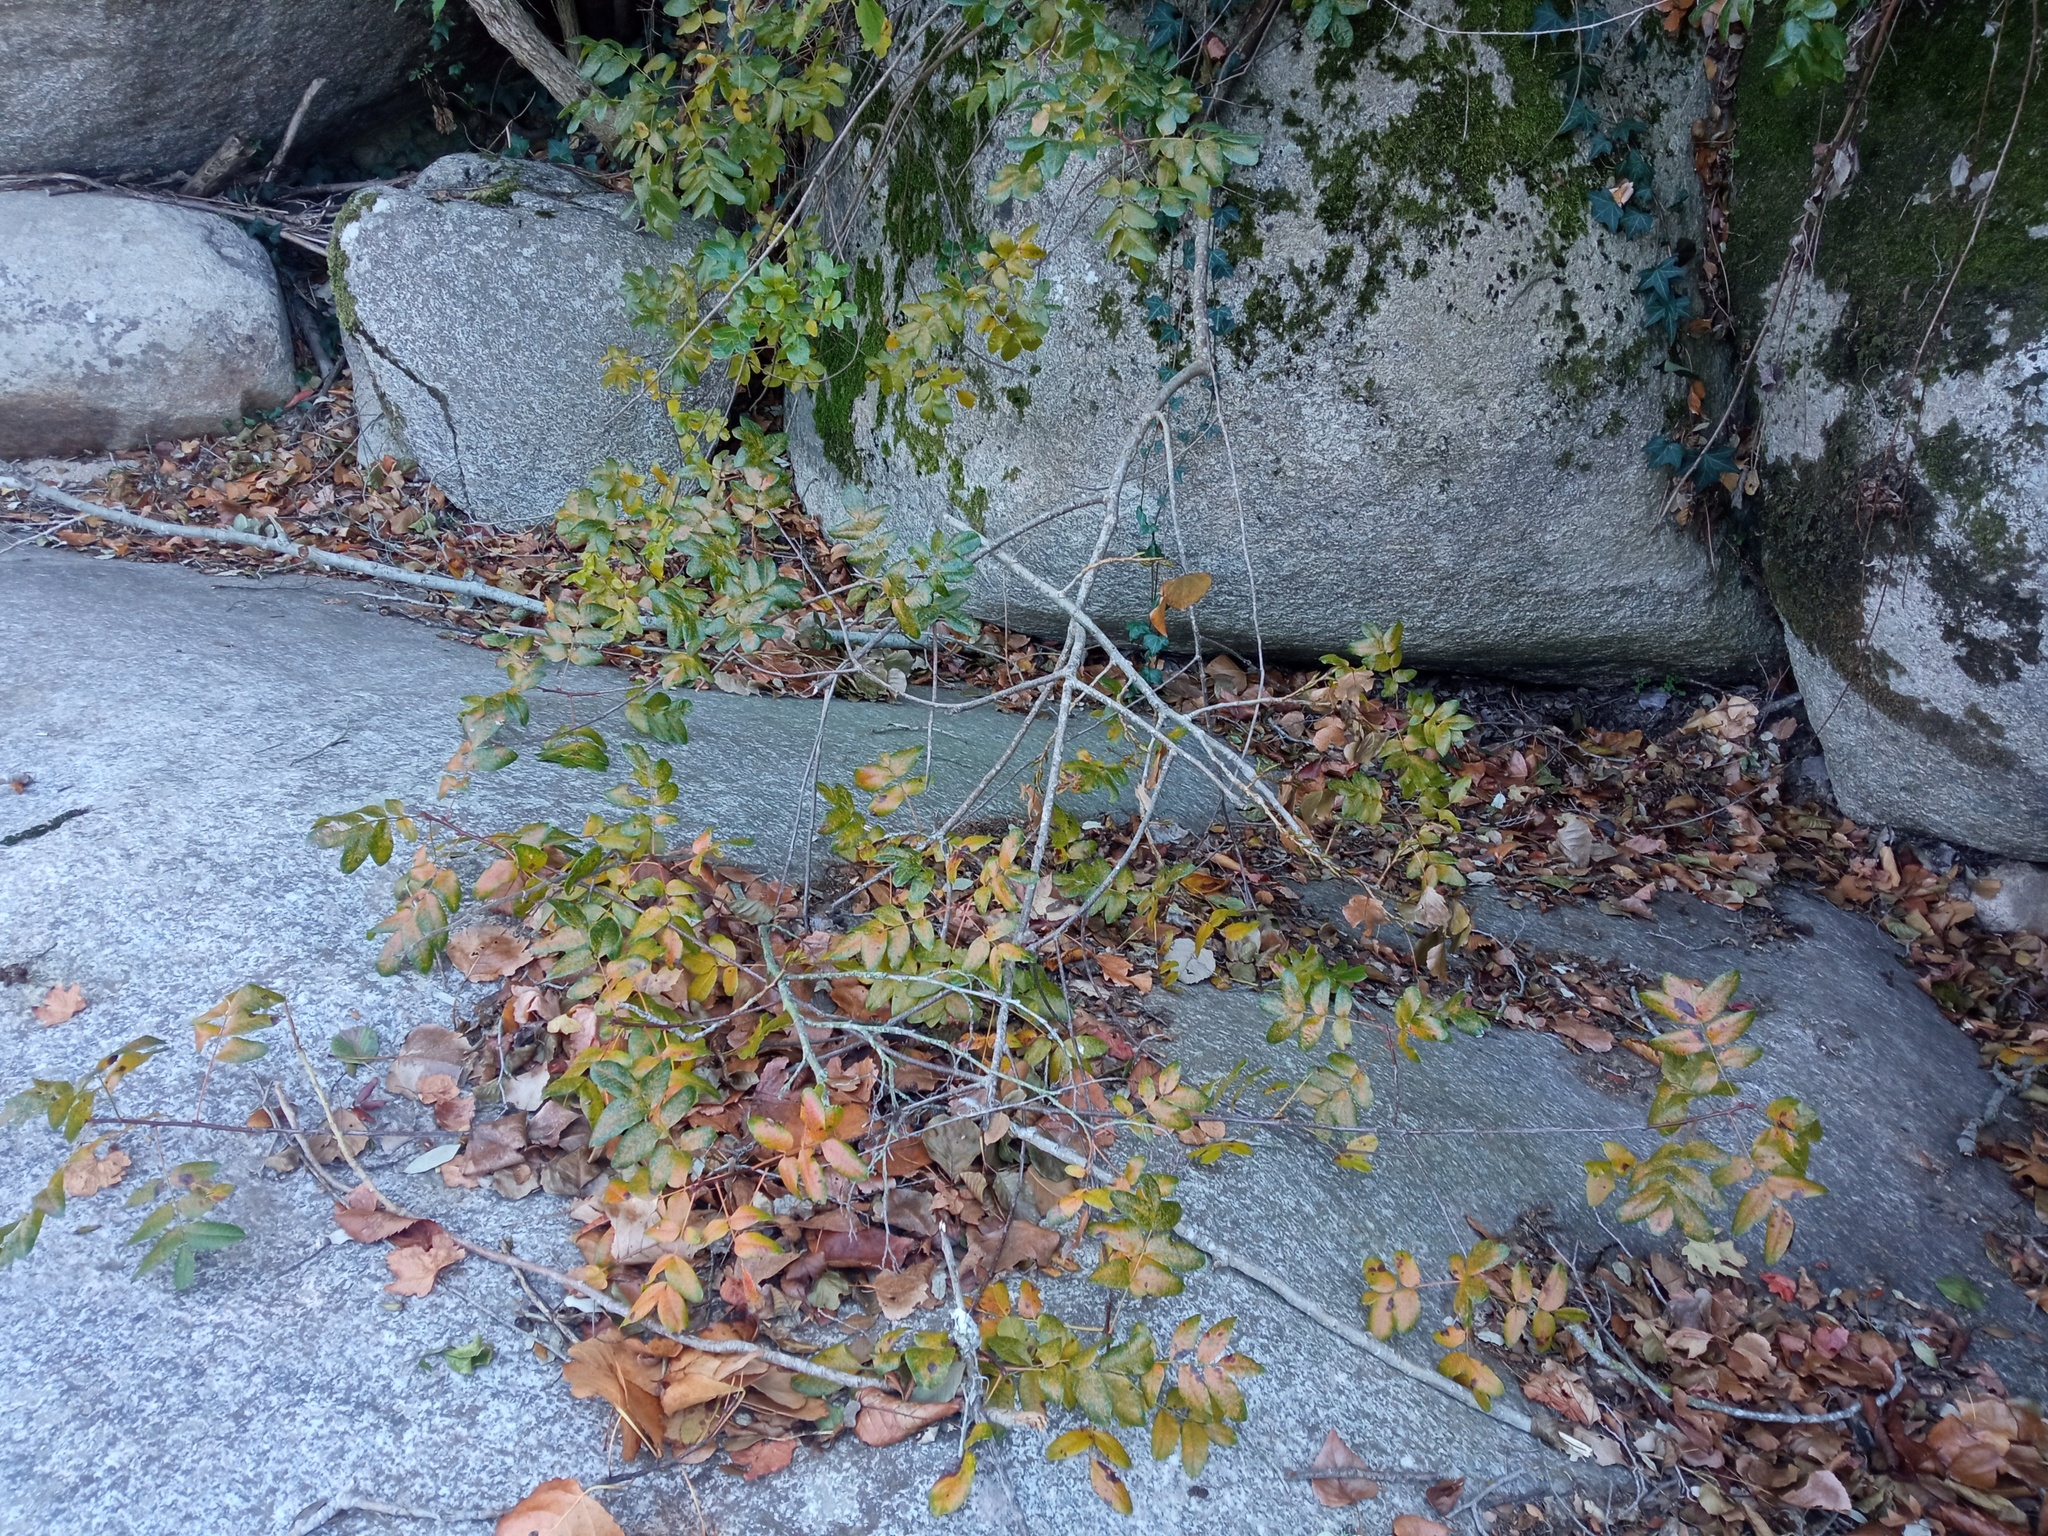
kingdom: Plantae
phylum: Tracheophyta
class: Magnoliopsida
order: Sapindales
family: Anacardiaceae
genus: Pistacia
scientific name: Pistacia terebinthus
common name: Terebinth
